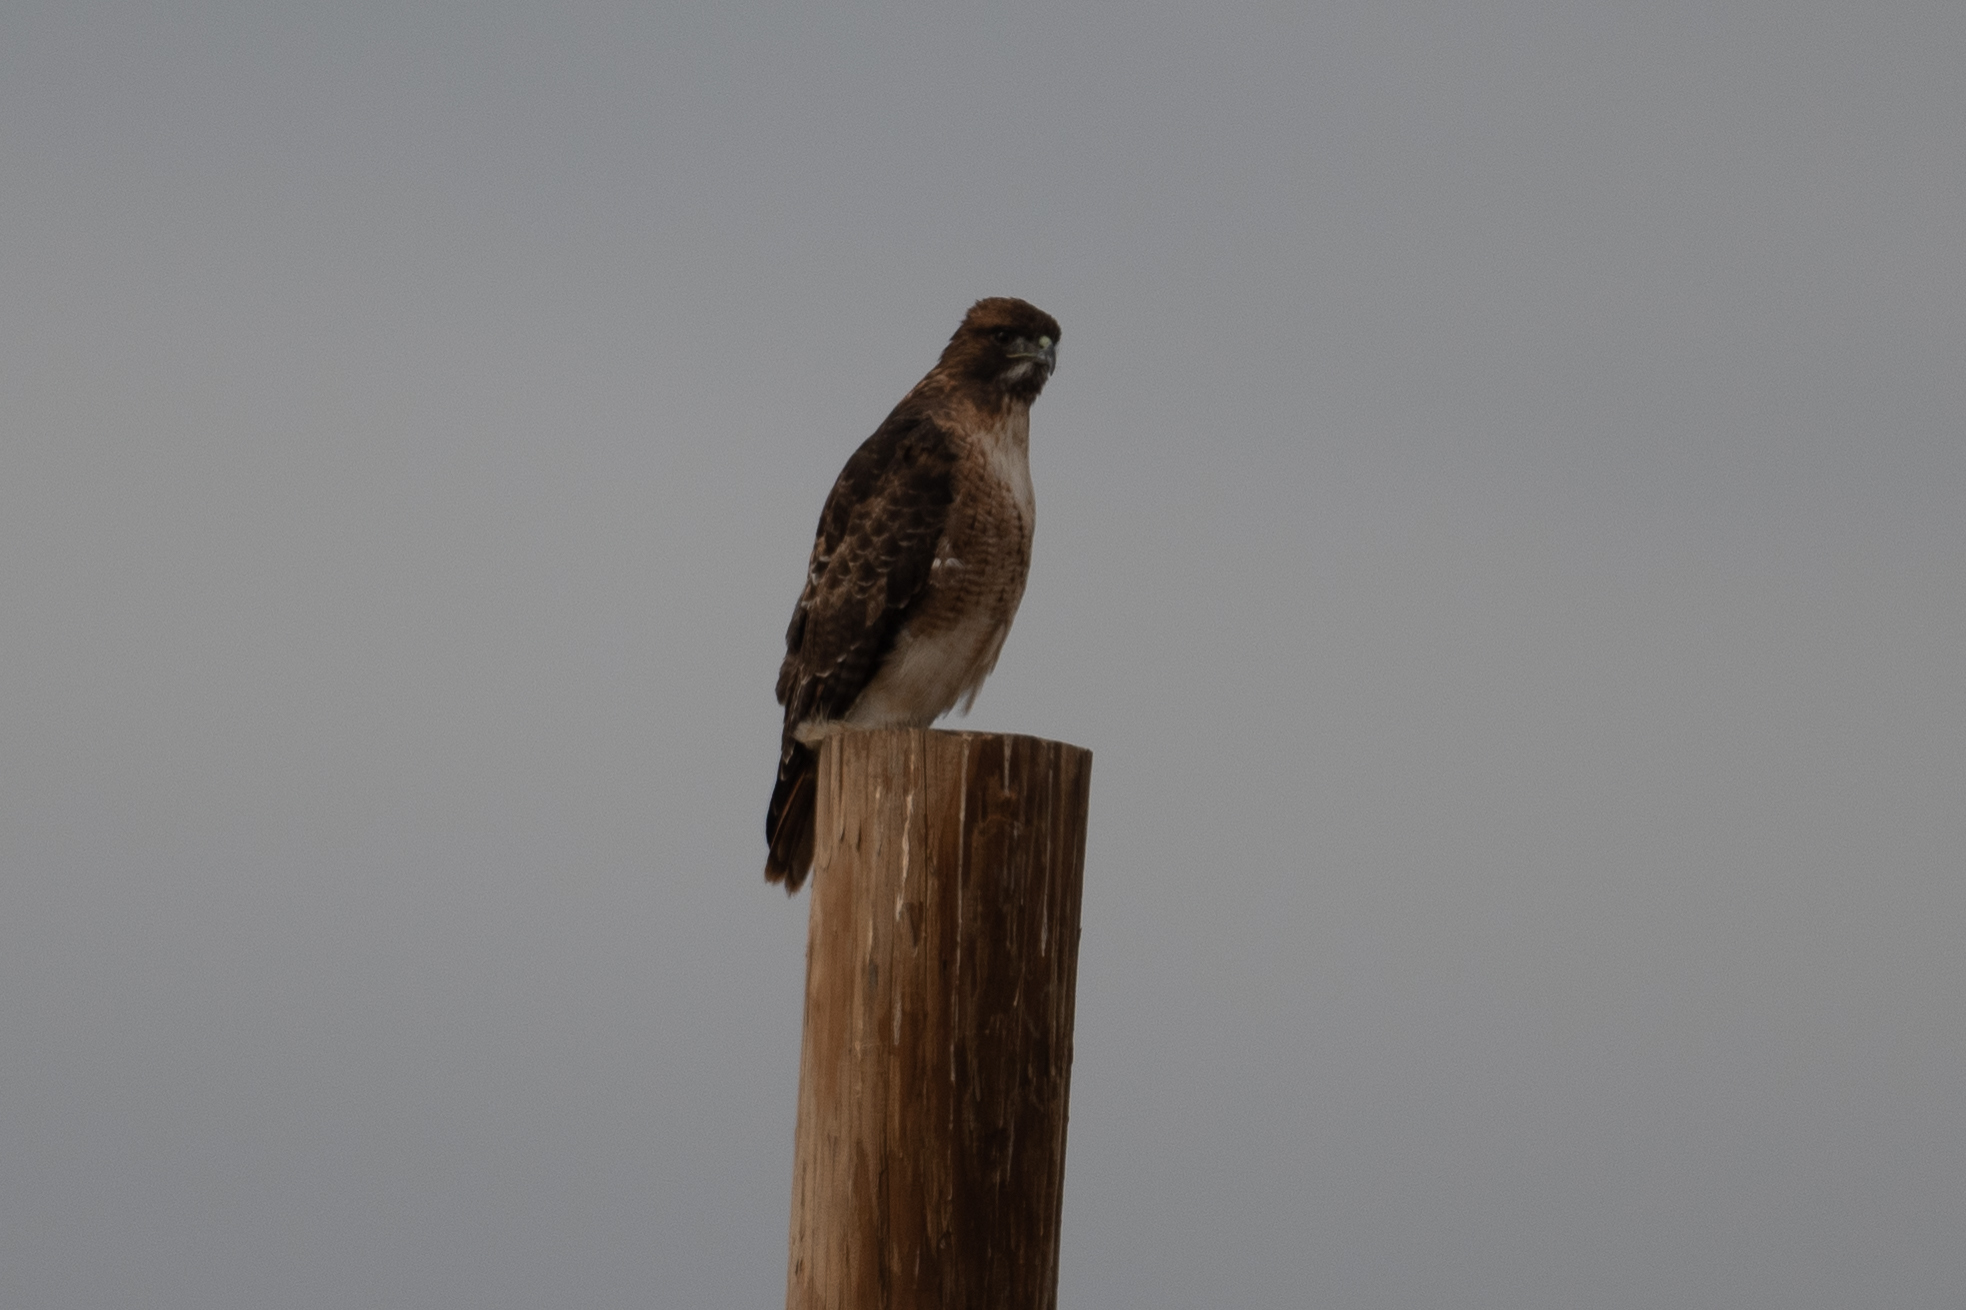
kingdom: Animalia
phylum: Chordata
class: Aves
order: Accipitriformes
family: Accipitridae
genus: Buteo
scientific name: Buteo jamaicensis
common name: Red-tailed hawk
